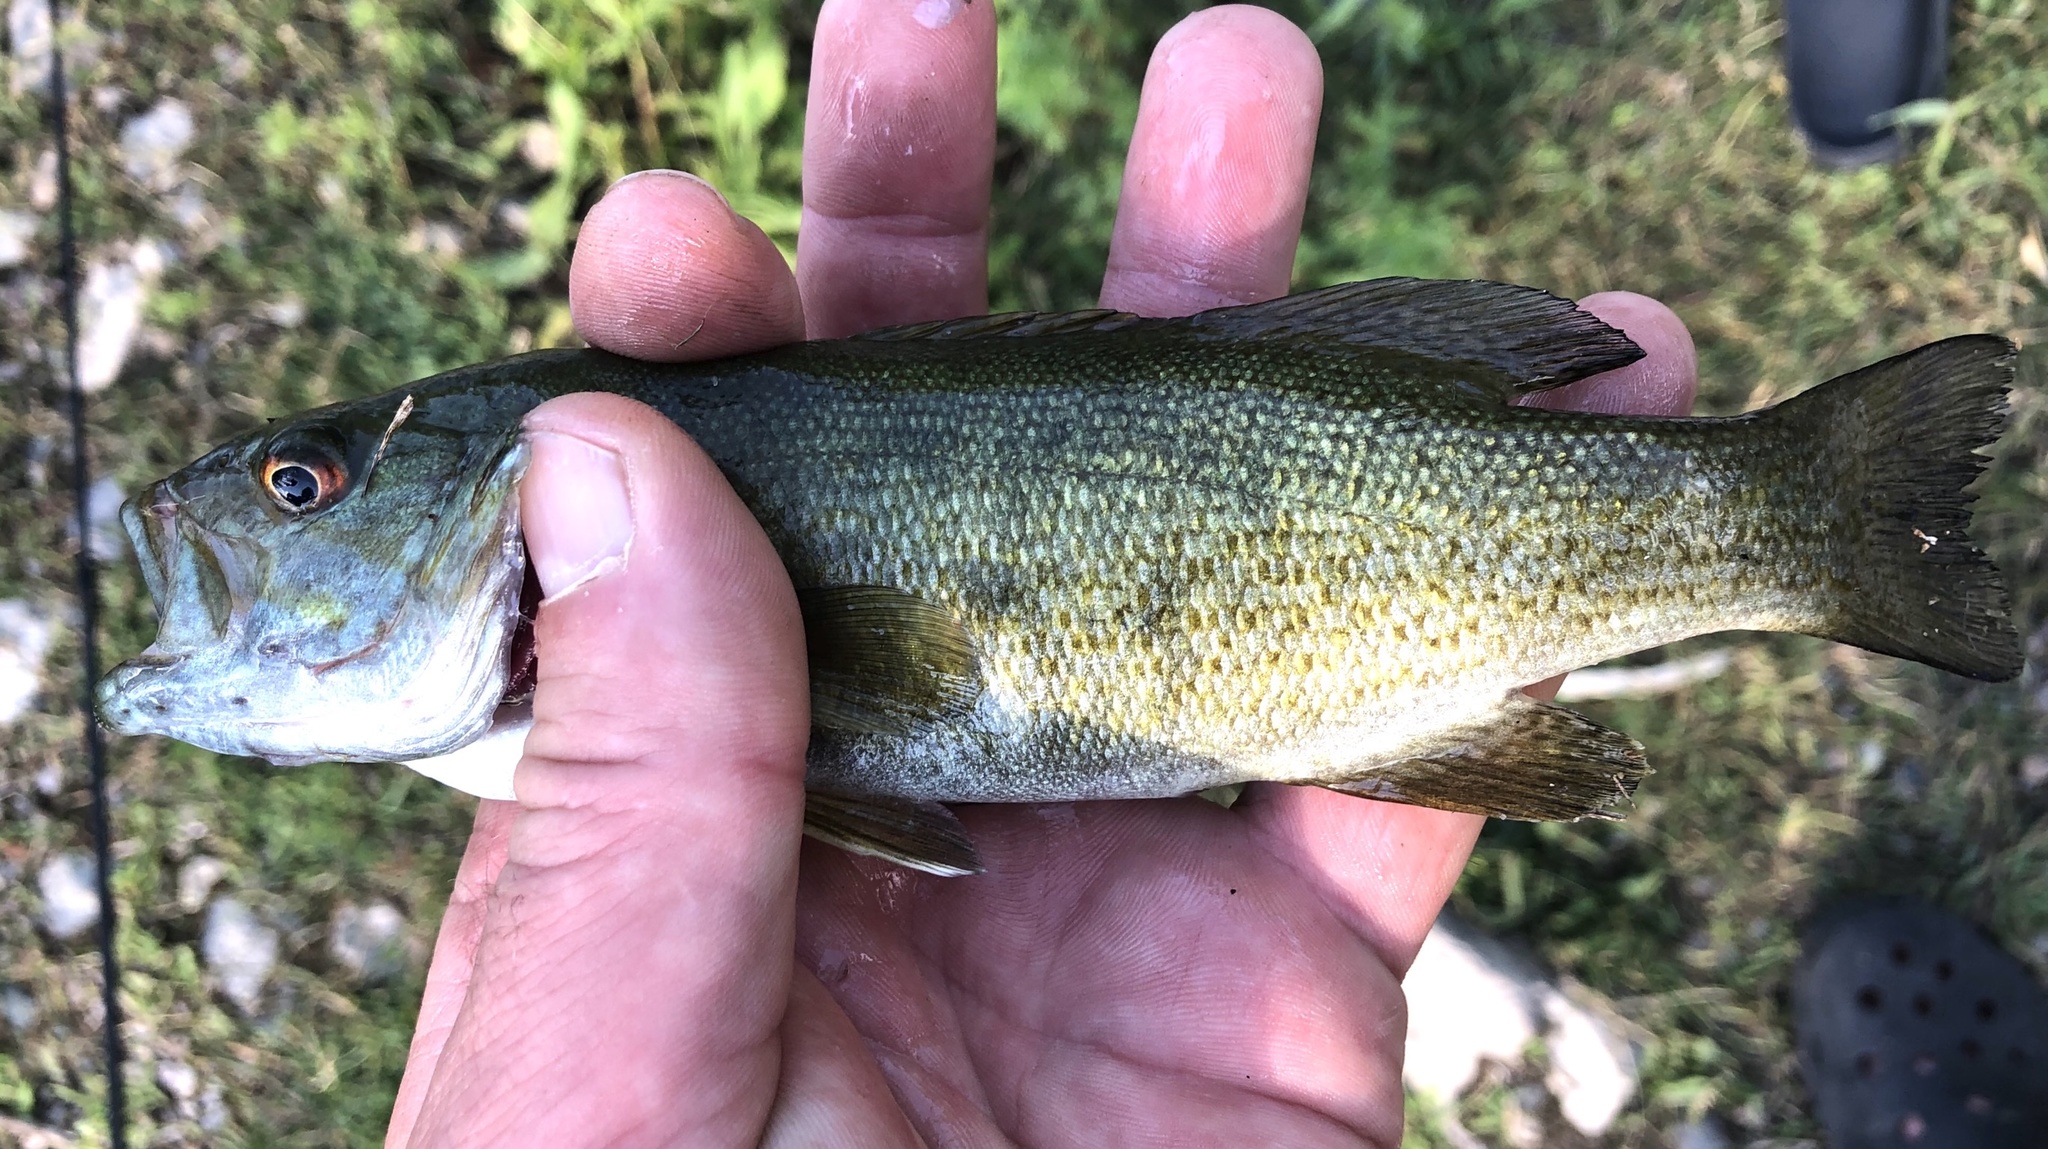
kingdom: Animalia
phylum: Chordata
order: Perciformes
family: Centrarchidae
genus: Micropterus
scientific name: Micropterus dolomieu
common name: Smallmouth bass
